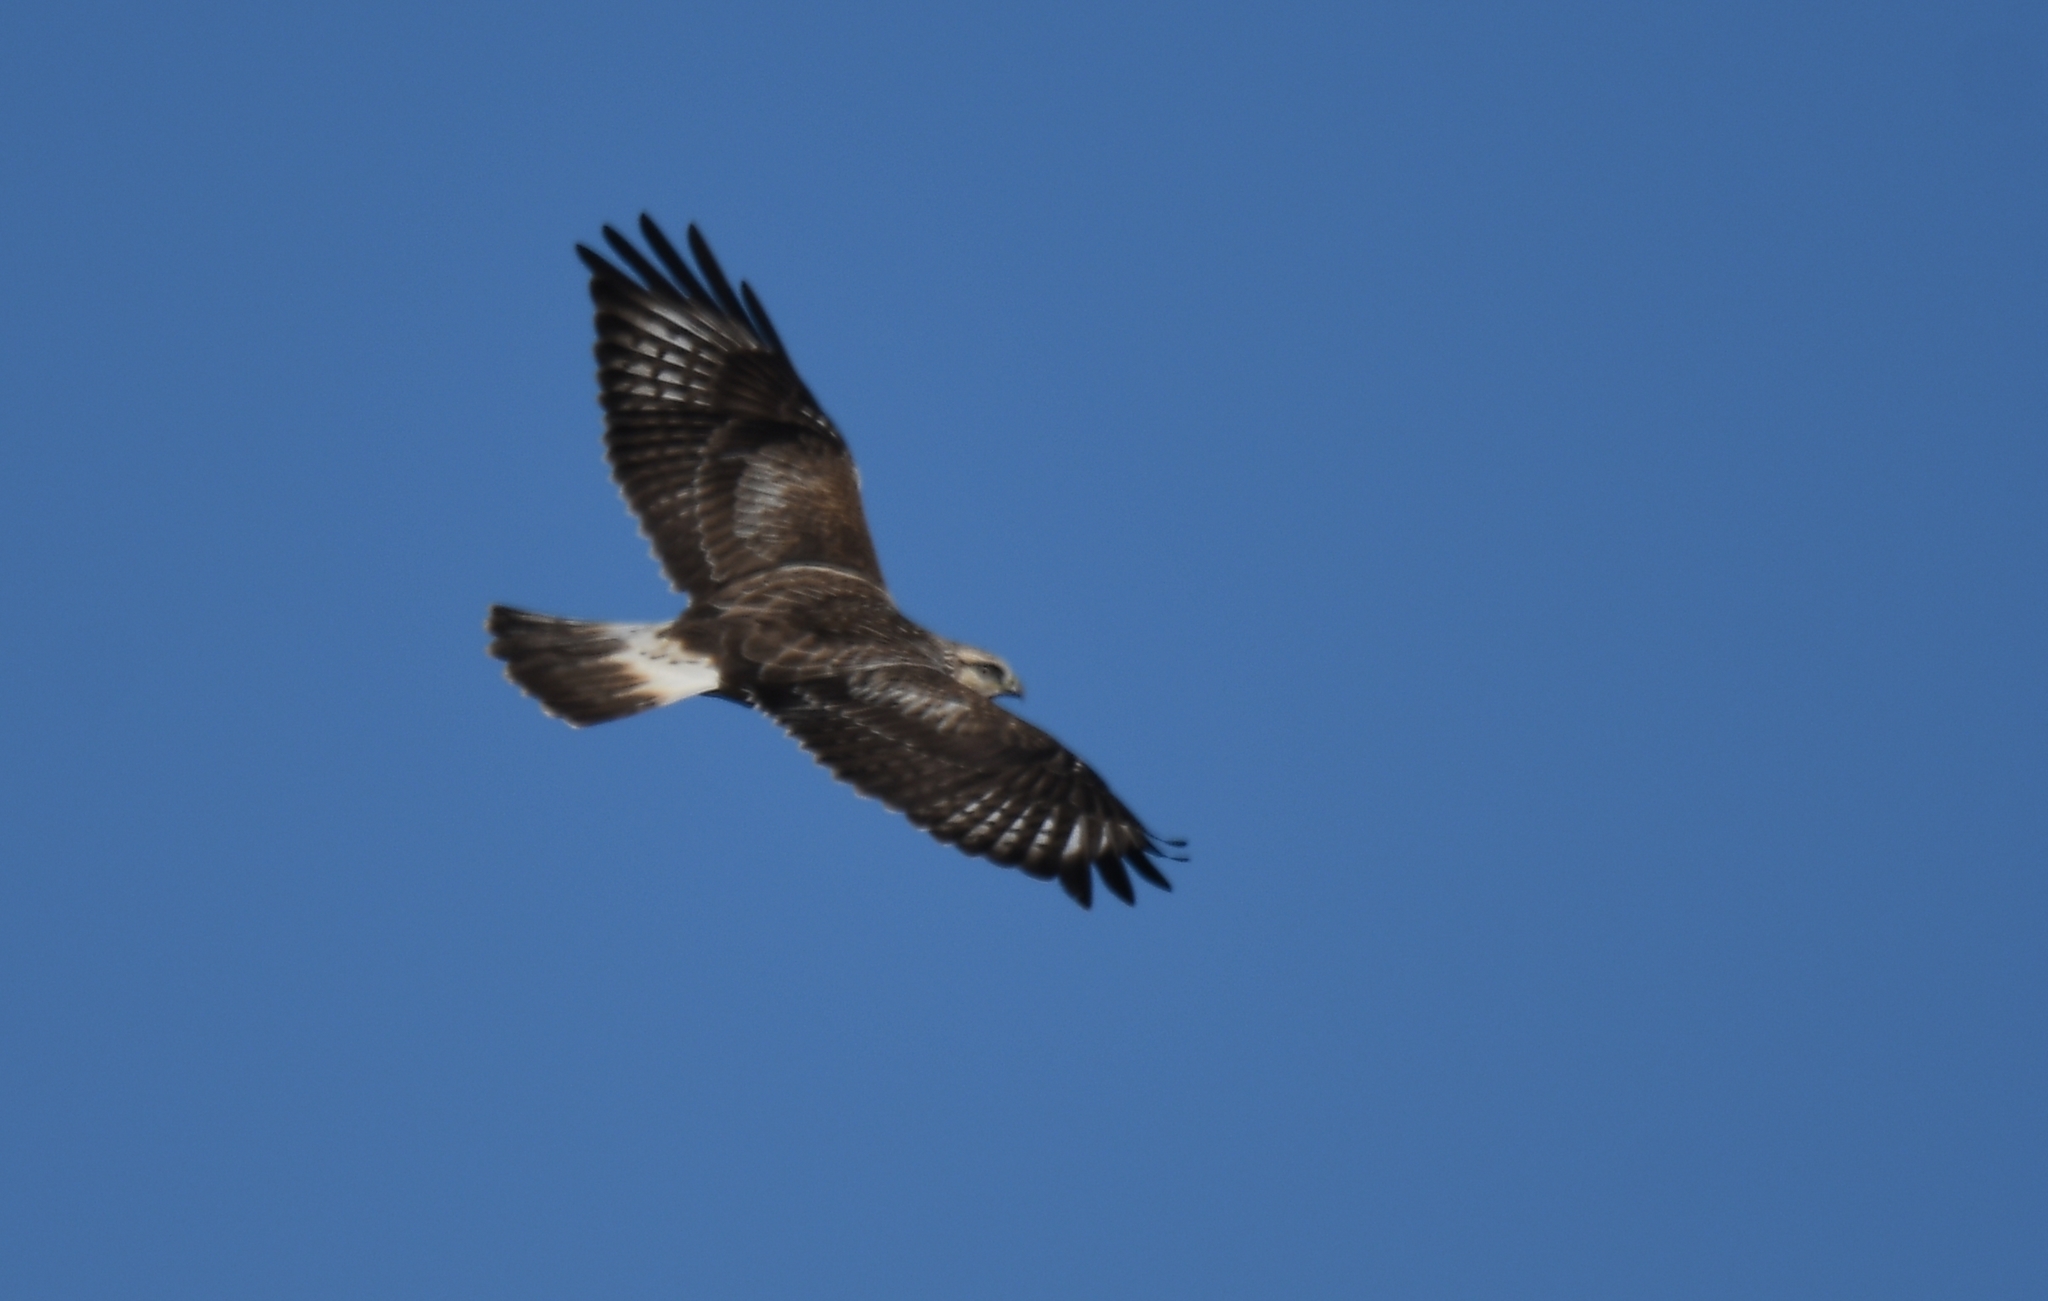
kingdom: Animalia
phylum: Chordata
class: Aves
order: Accipitriformes
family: Accipitridae
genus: Buteo
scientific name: Buteo lagopus
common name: Rough-legged buzzard
